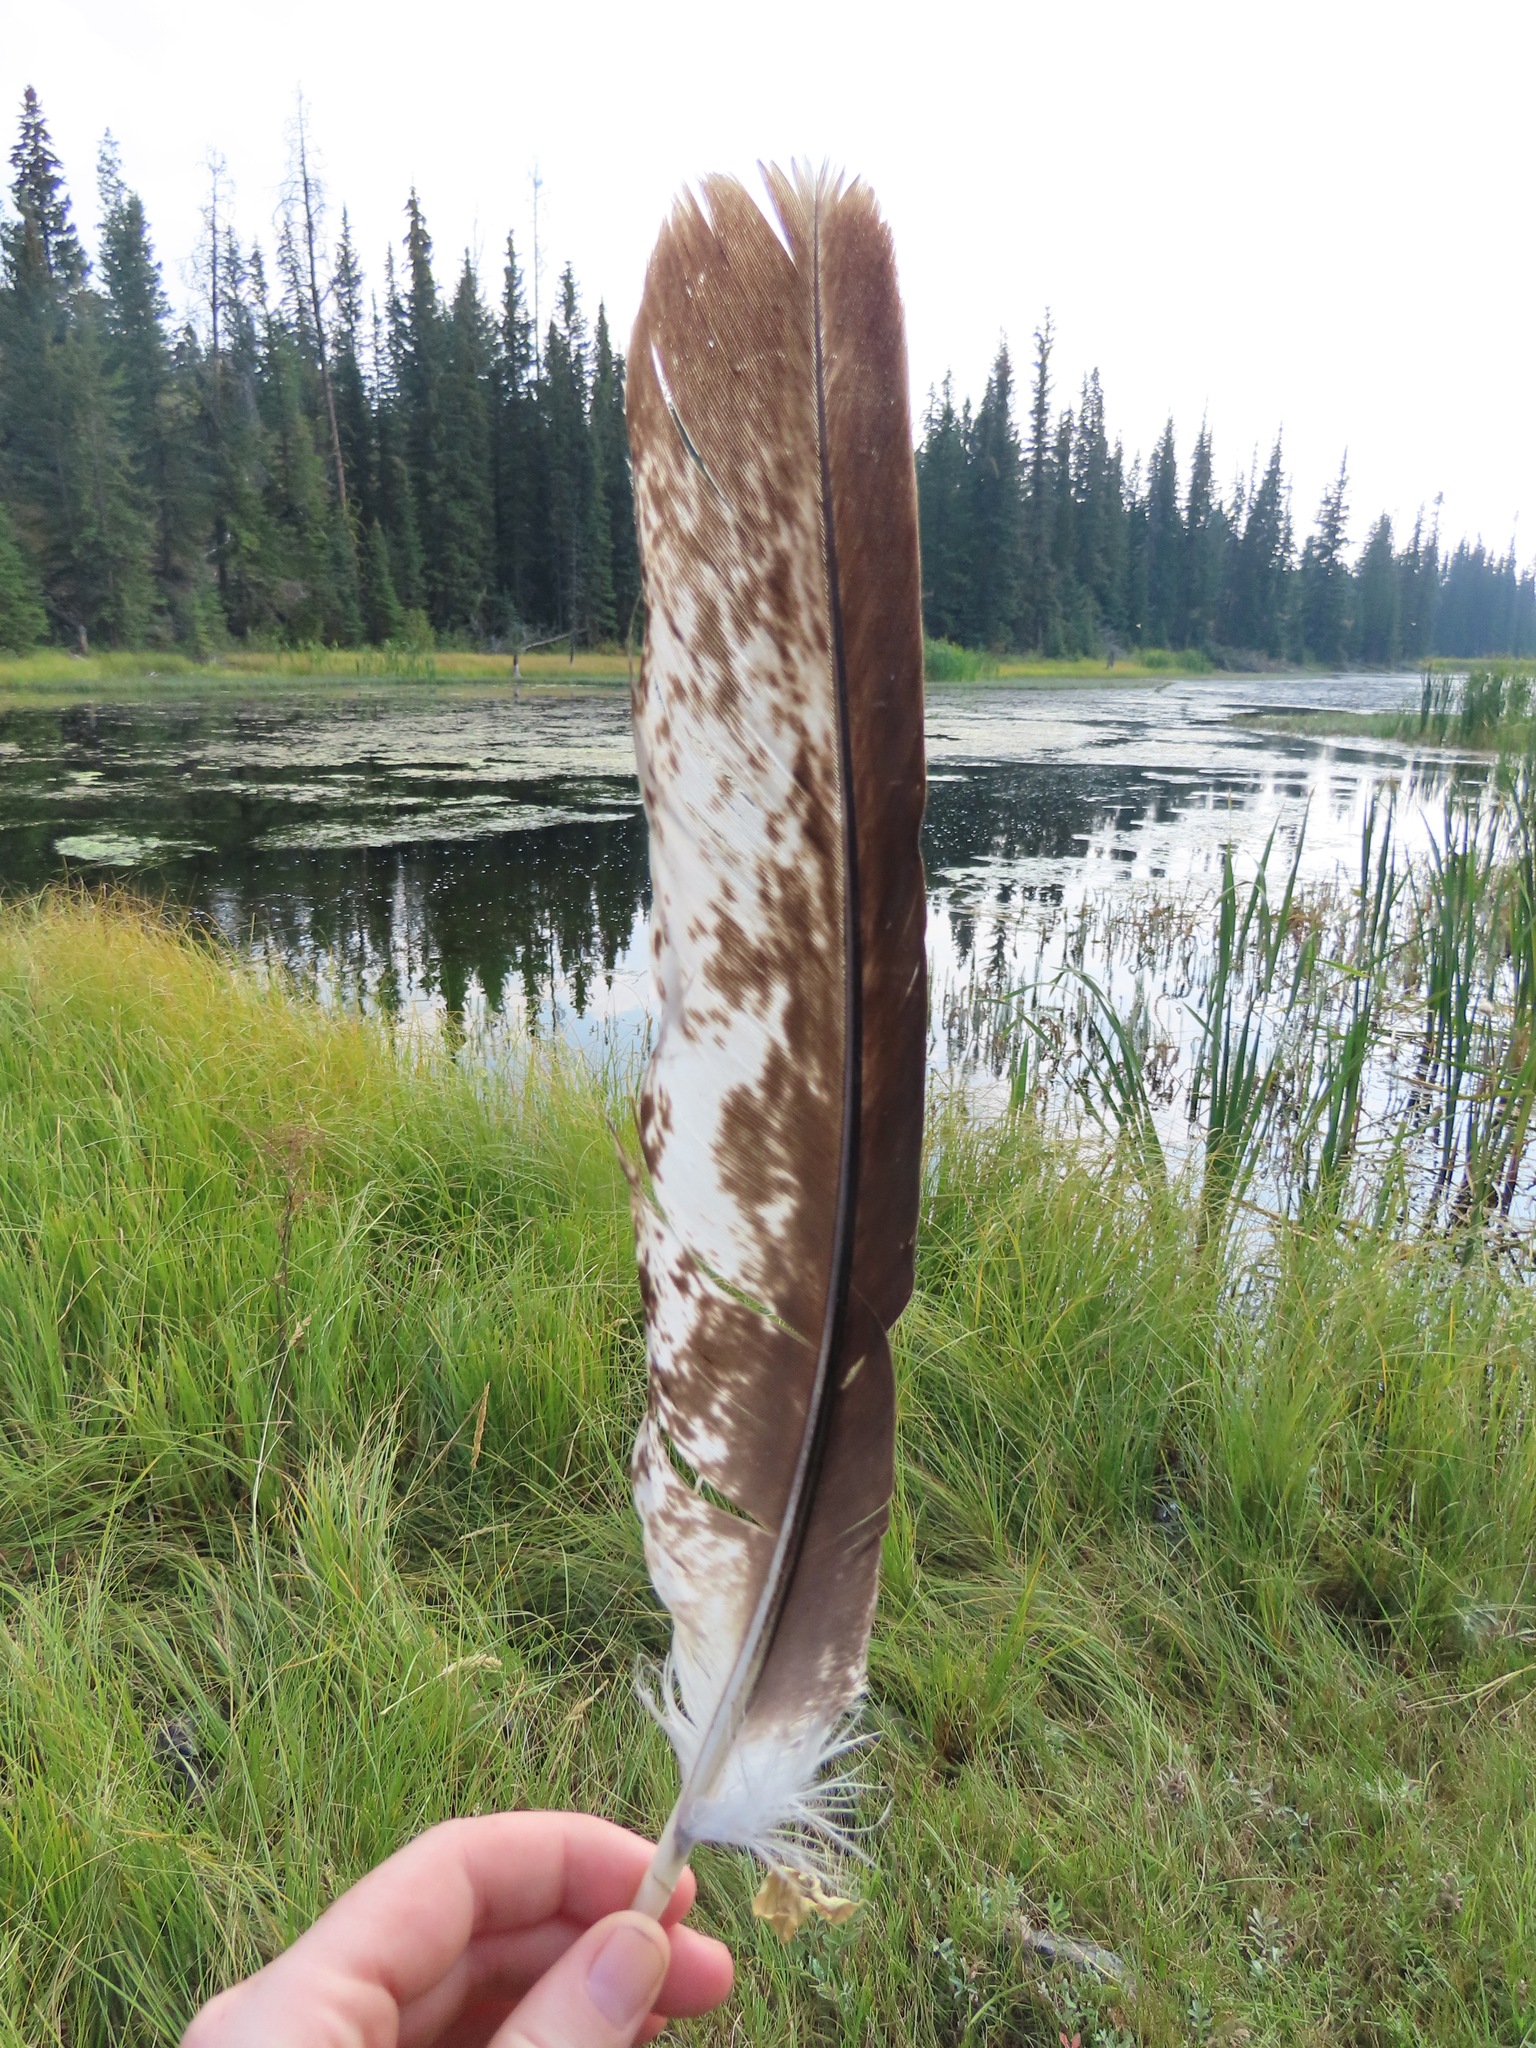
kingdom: Animalia
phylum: Chordata
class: Aves
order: Accipitriformes
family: Accipitridae
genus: Haliaeetus
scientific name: Haliaeetus leucocephalus
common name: Bald eagle
